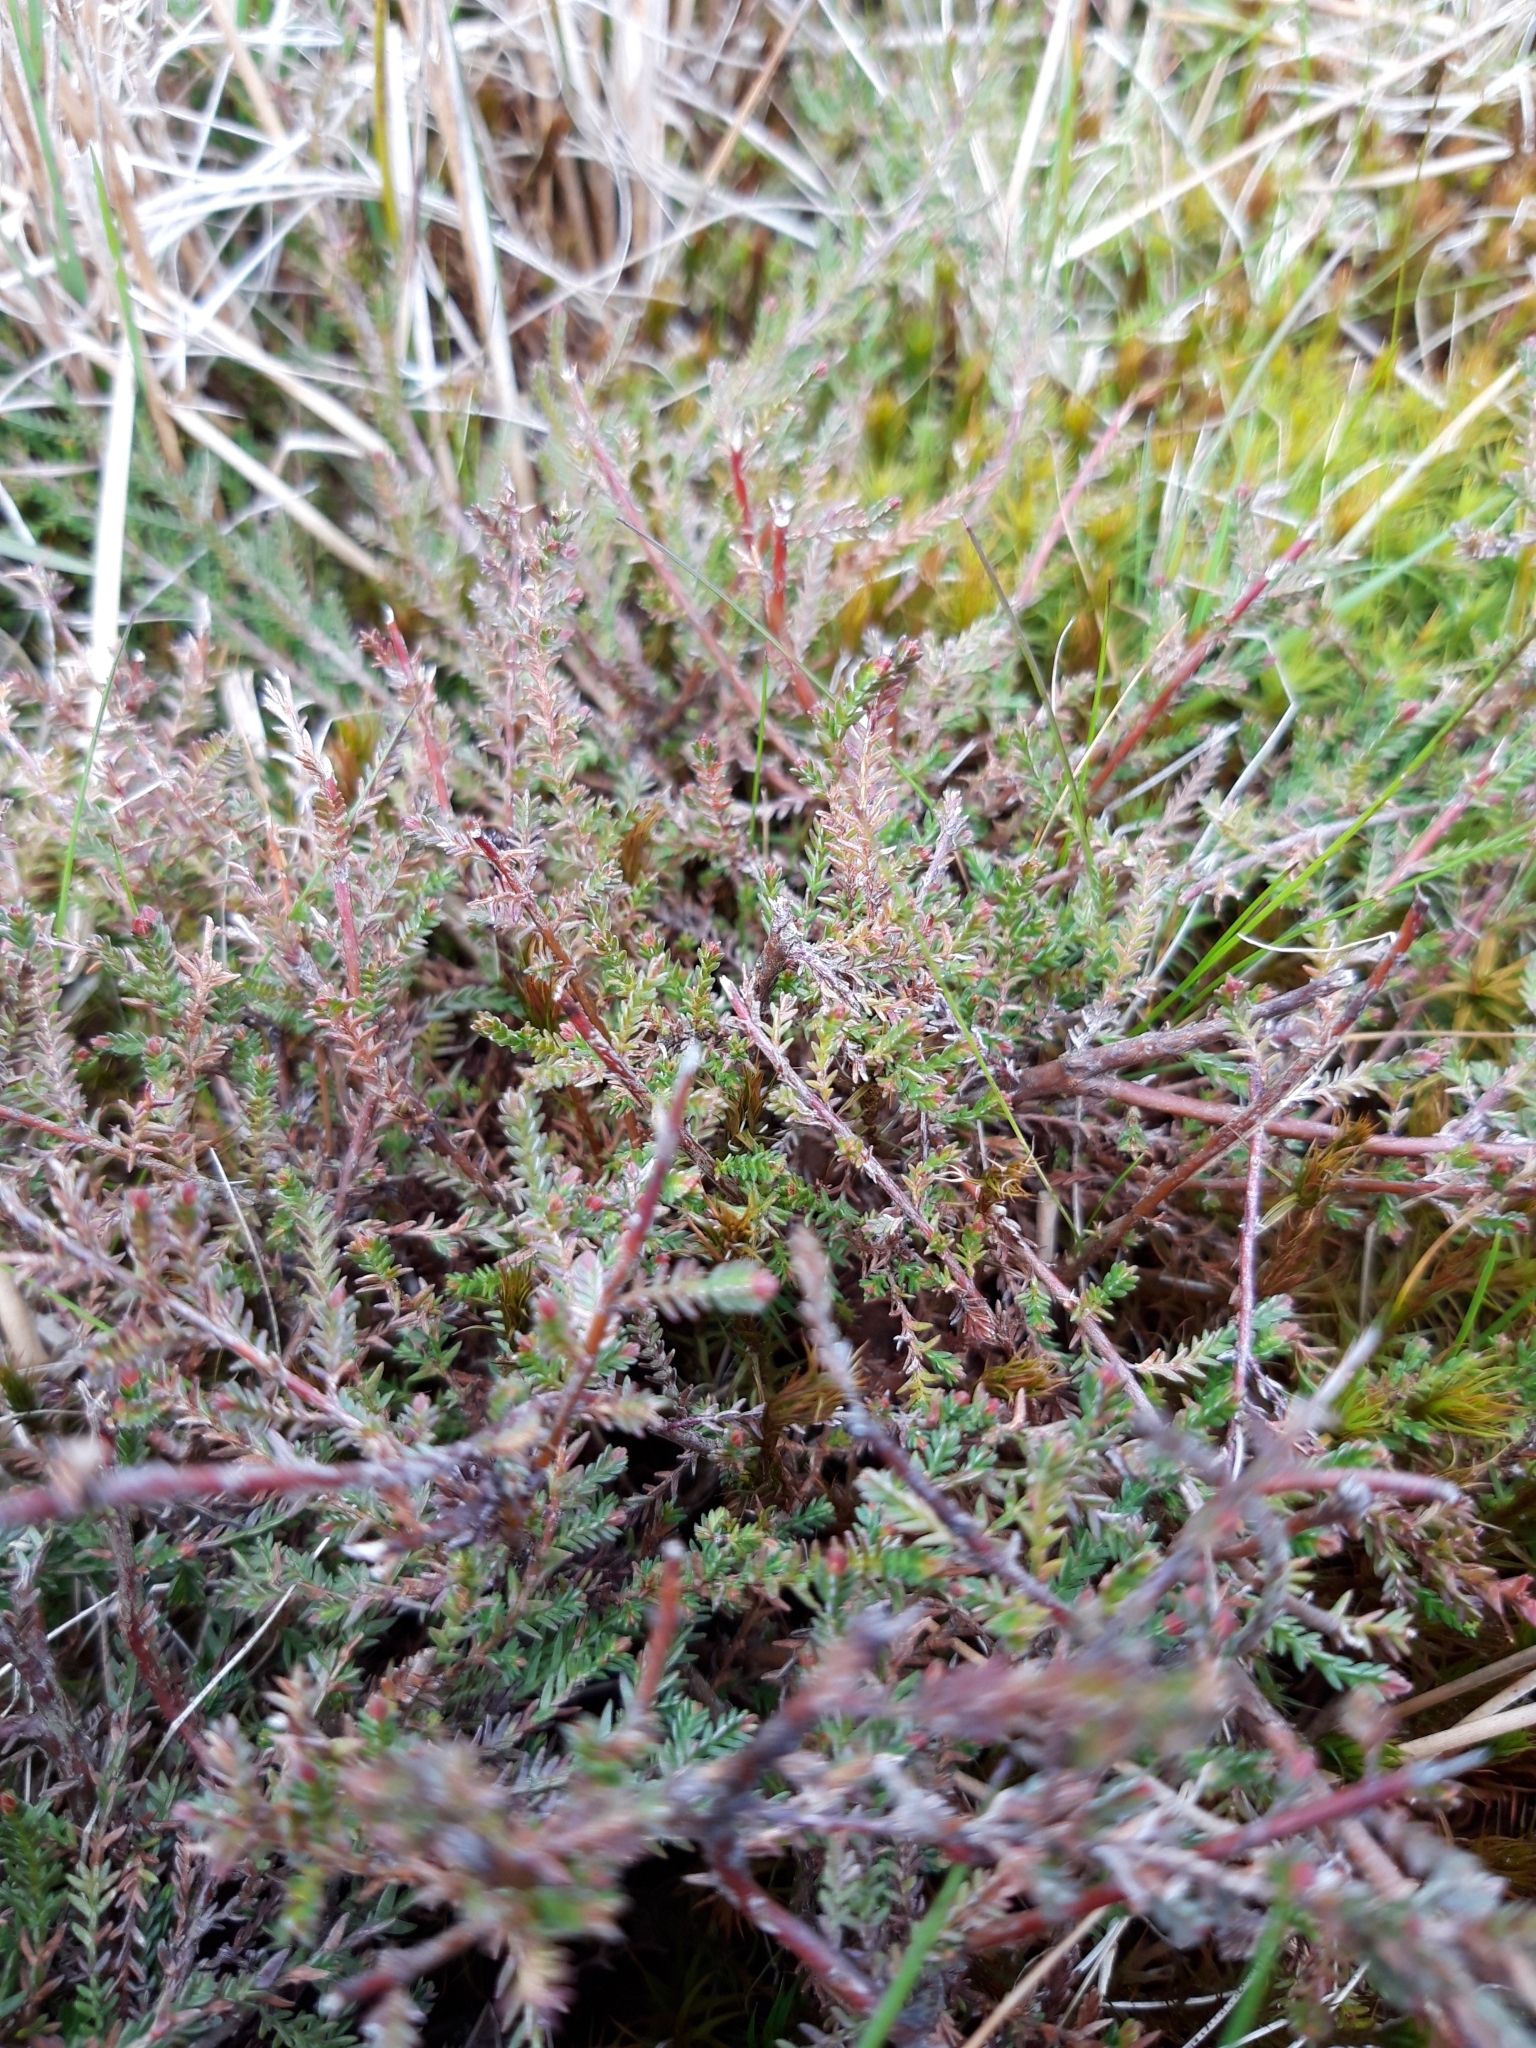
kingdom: Plantae
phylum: Tracheophyta
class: Magnoliopsida
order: Ericales
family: Ericaceae
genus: Calluna
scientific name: Calluna vulgaris
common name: Heather
